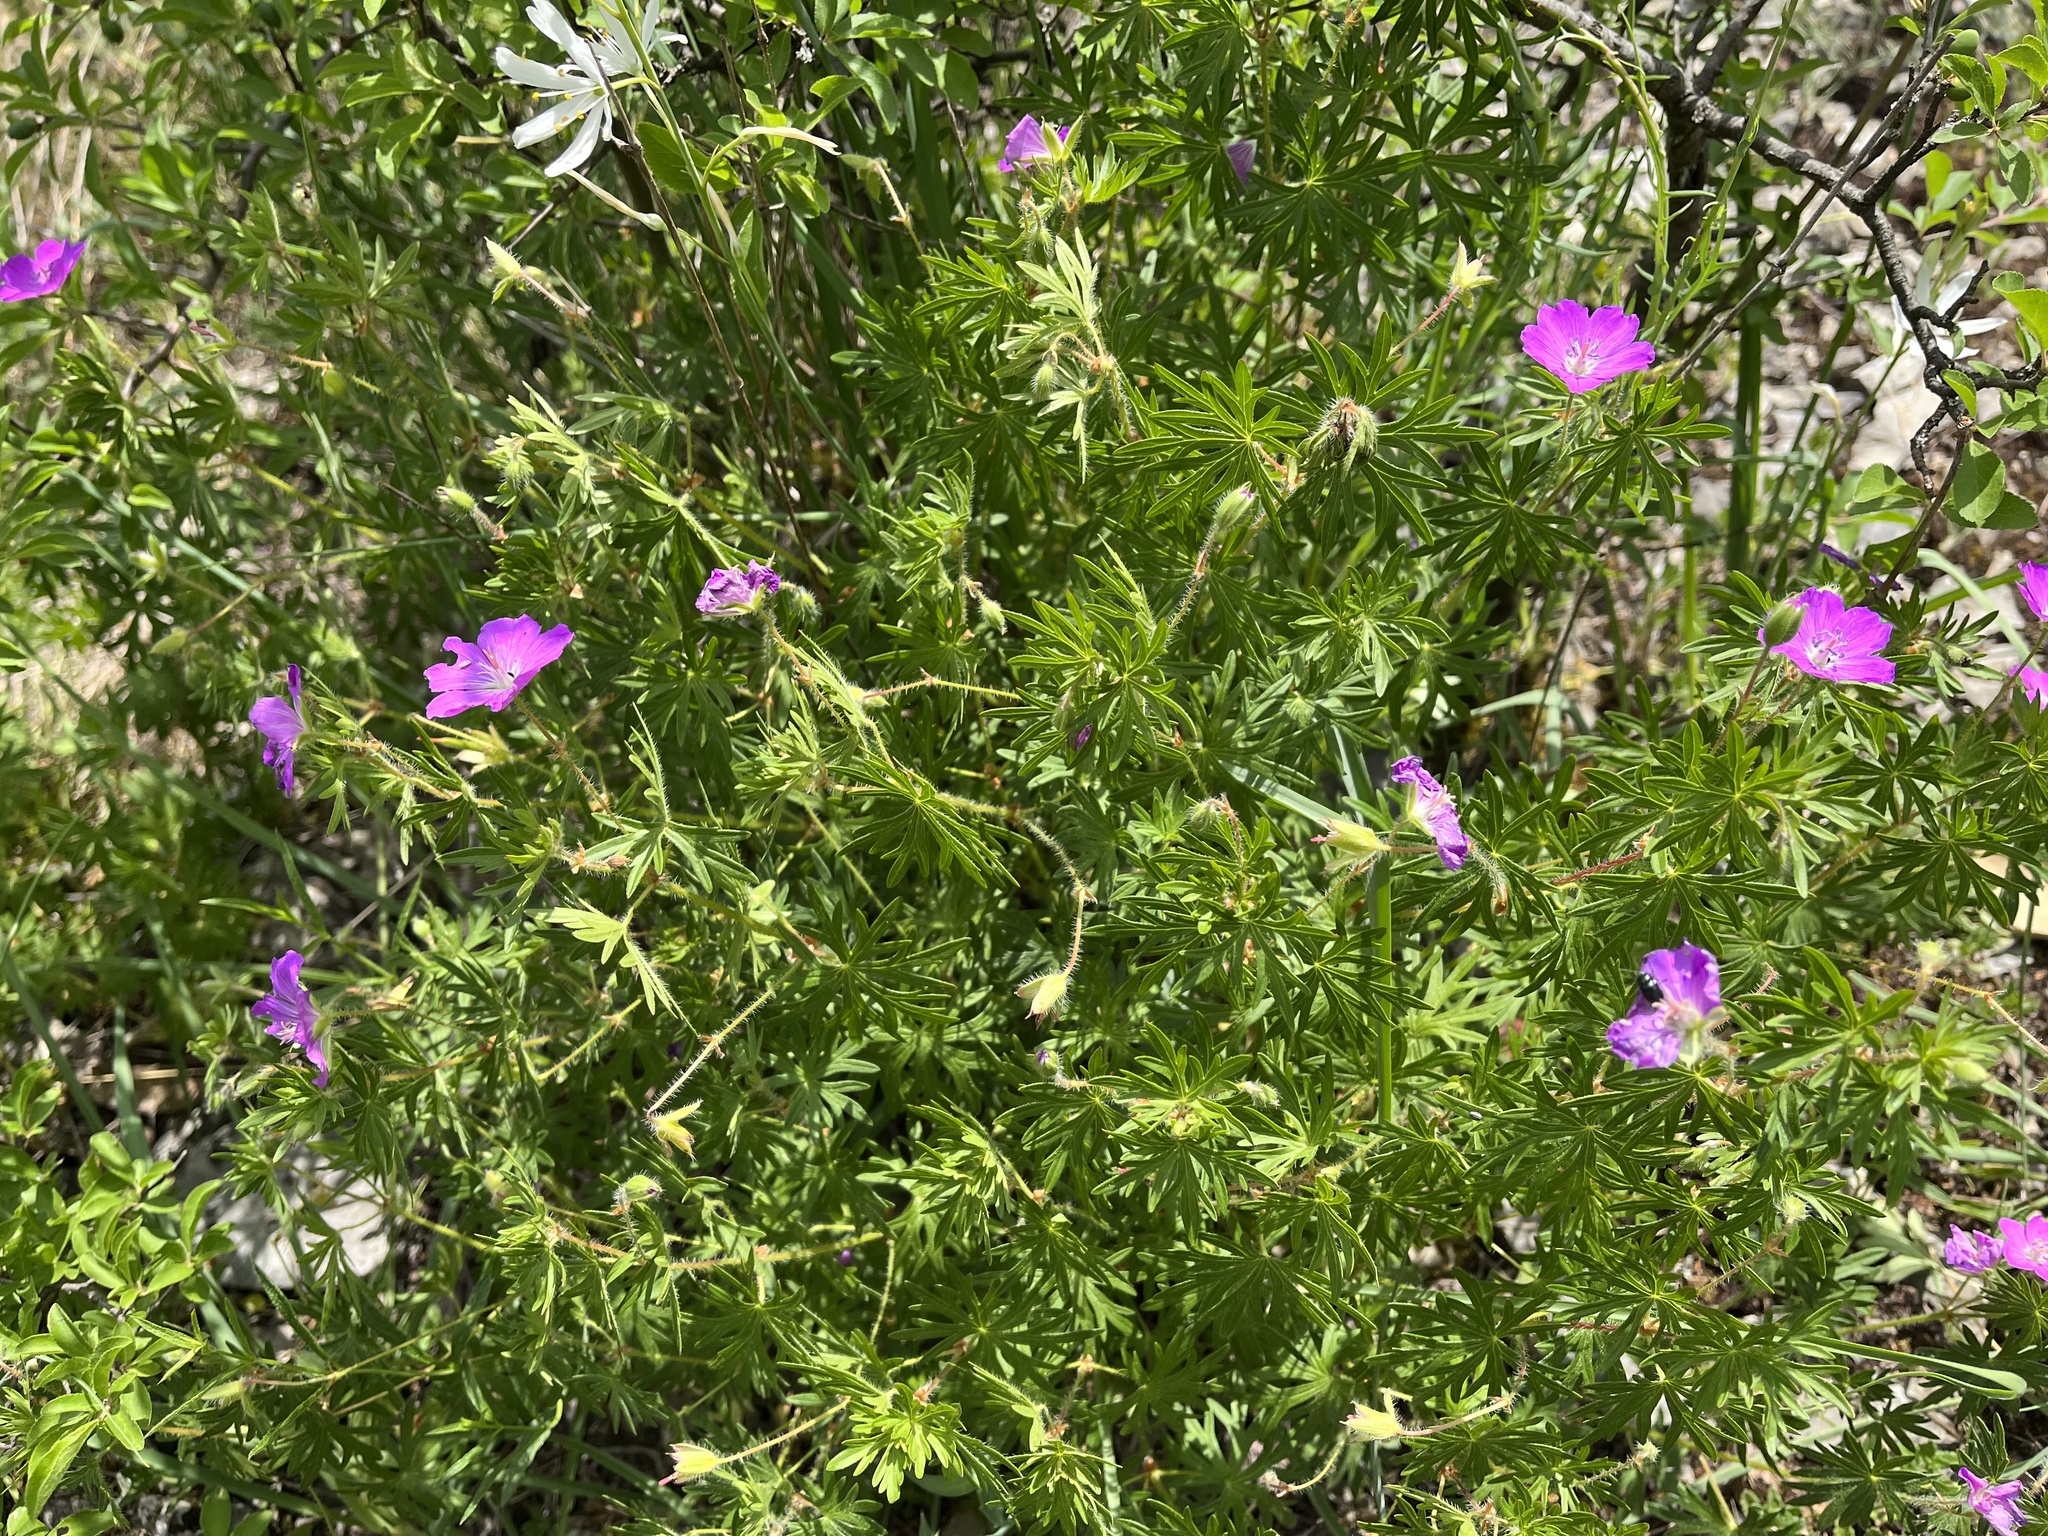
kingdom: Plantae
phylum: Tracheophyta
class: Magnoliopsida
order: Geraniales
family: Geraniaceae
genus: Geranium
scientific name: Geranium sanguineum
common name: Bloody crane's-bill
